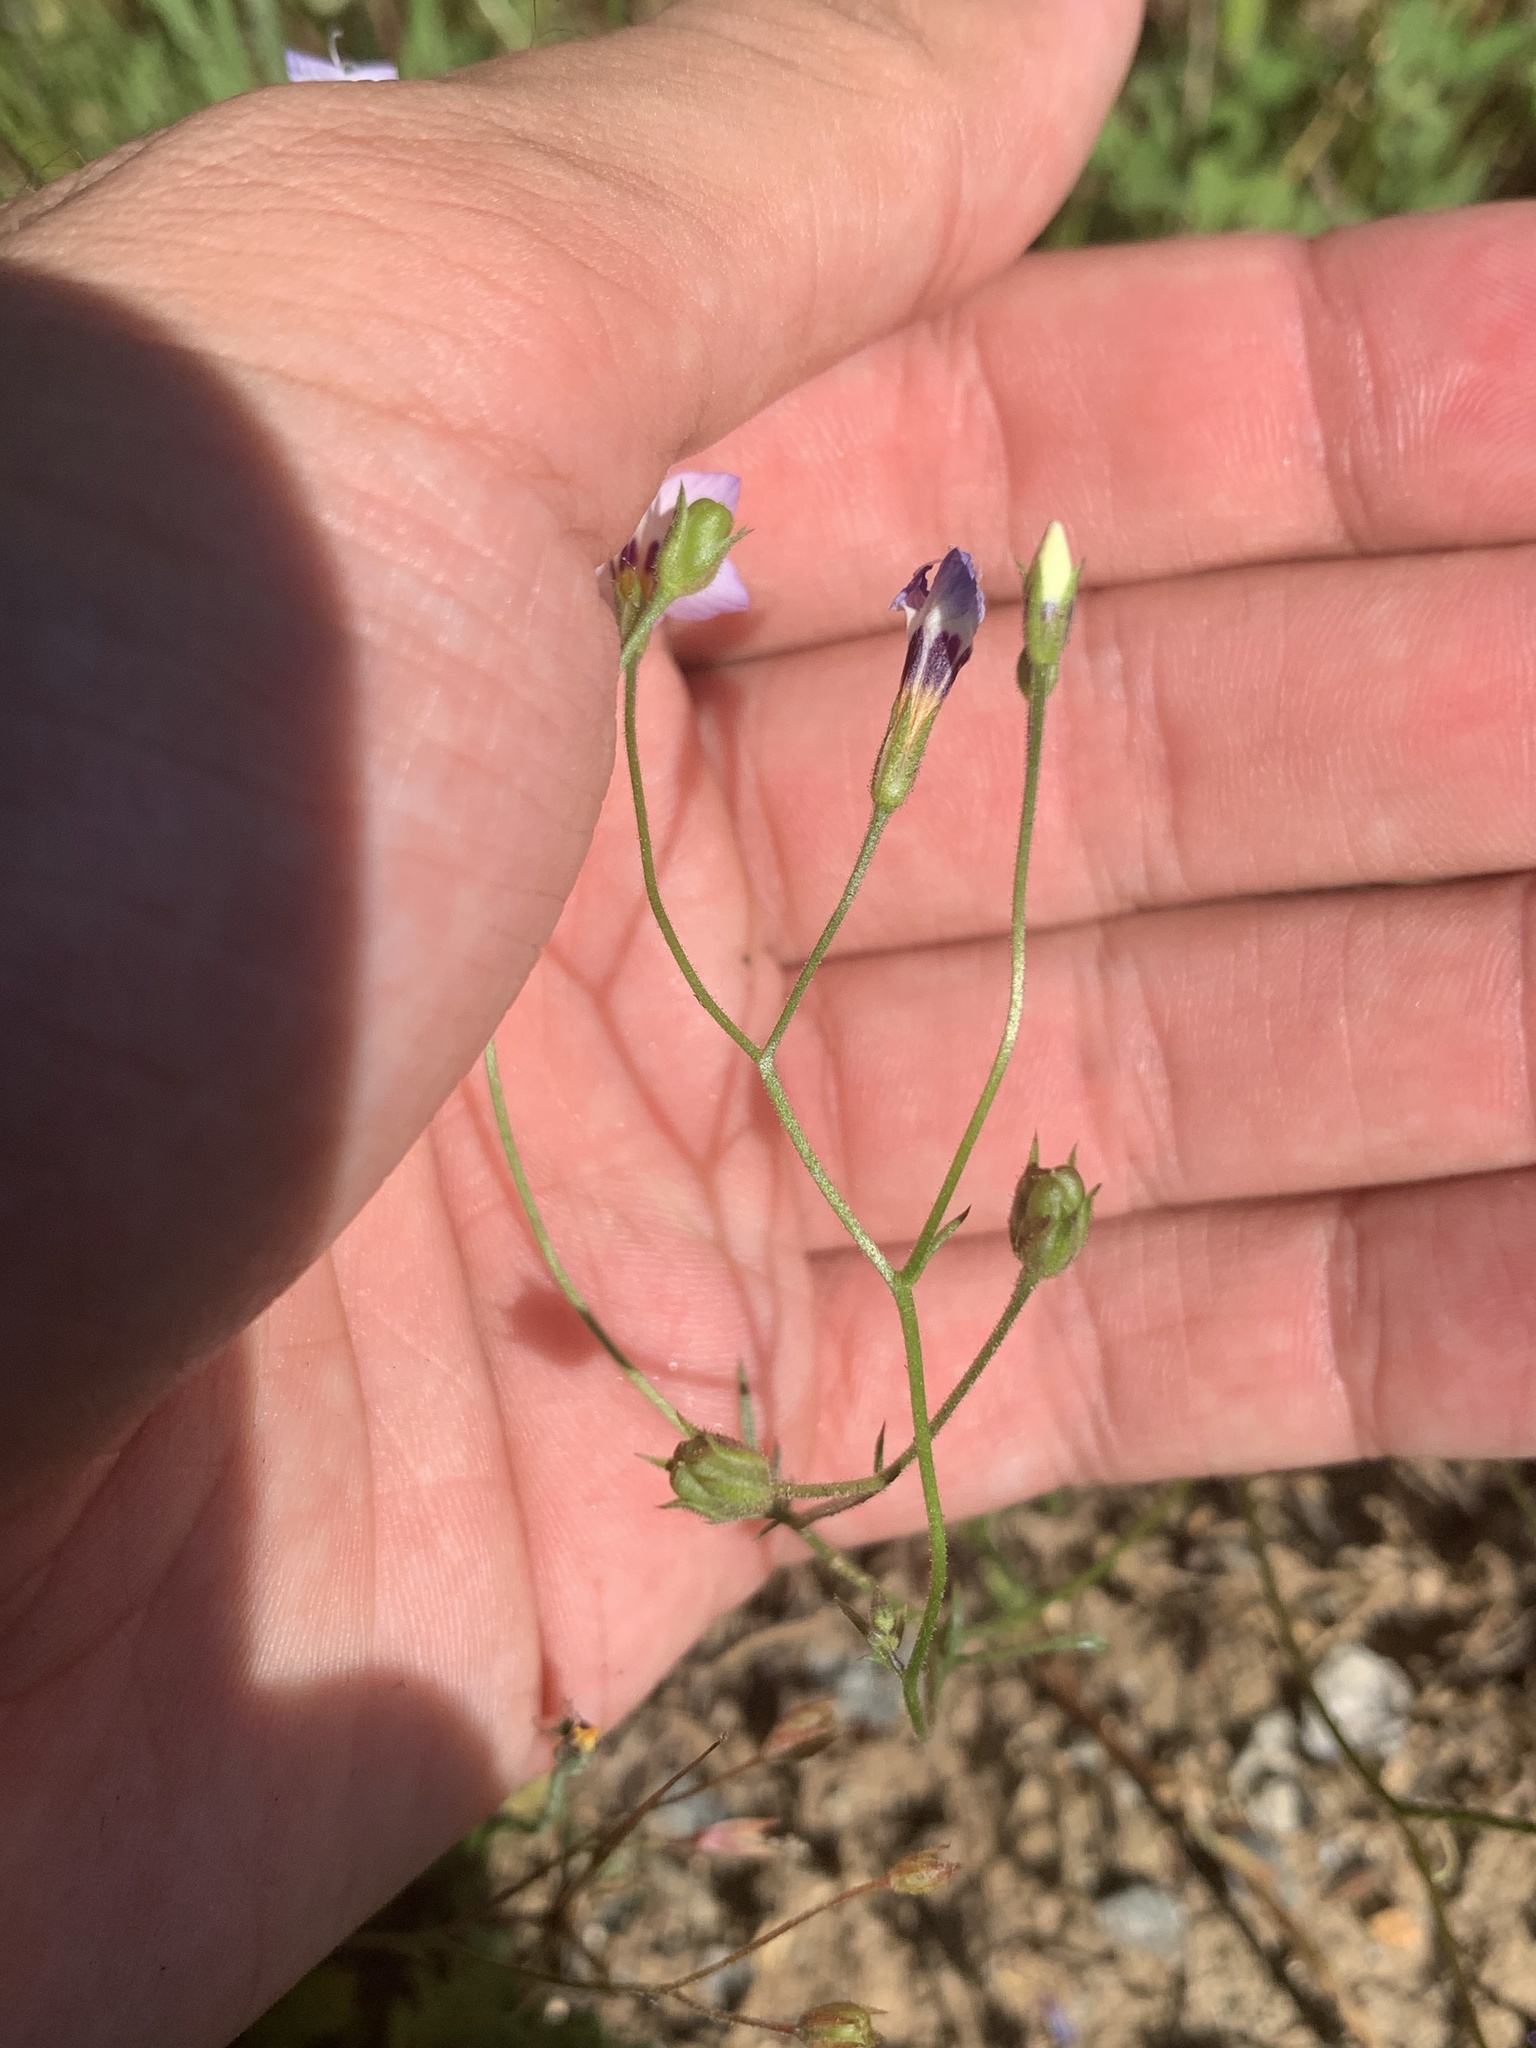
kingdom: Plantae
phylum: Tracheophyta
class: Magnoliopsida
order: Ericales
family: Polemoniaceae
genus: Gilia
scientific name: Gilia tricolor
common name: Bird's-eyes
